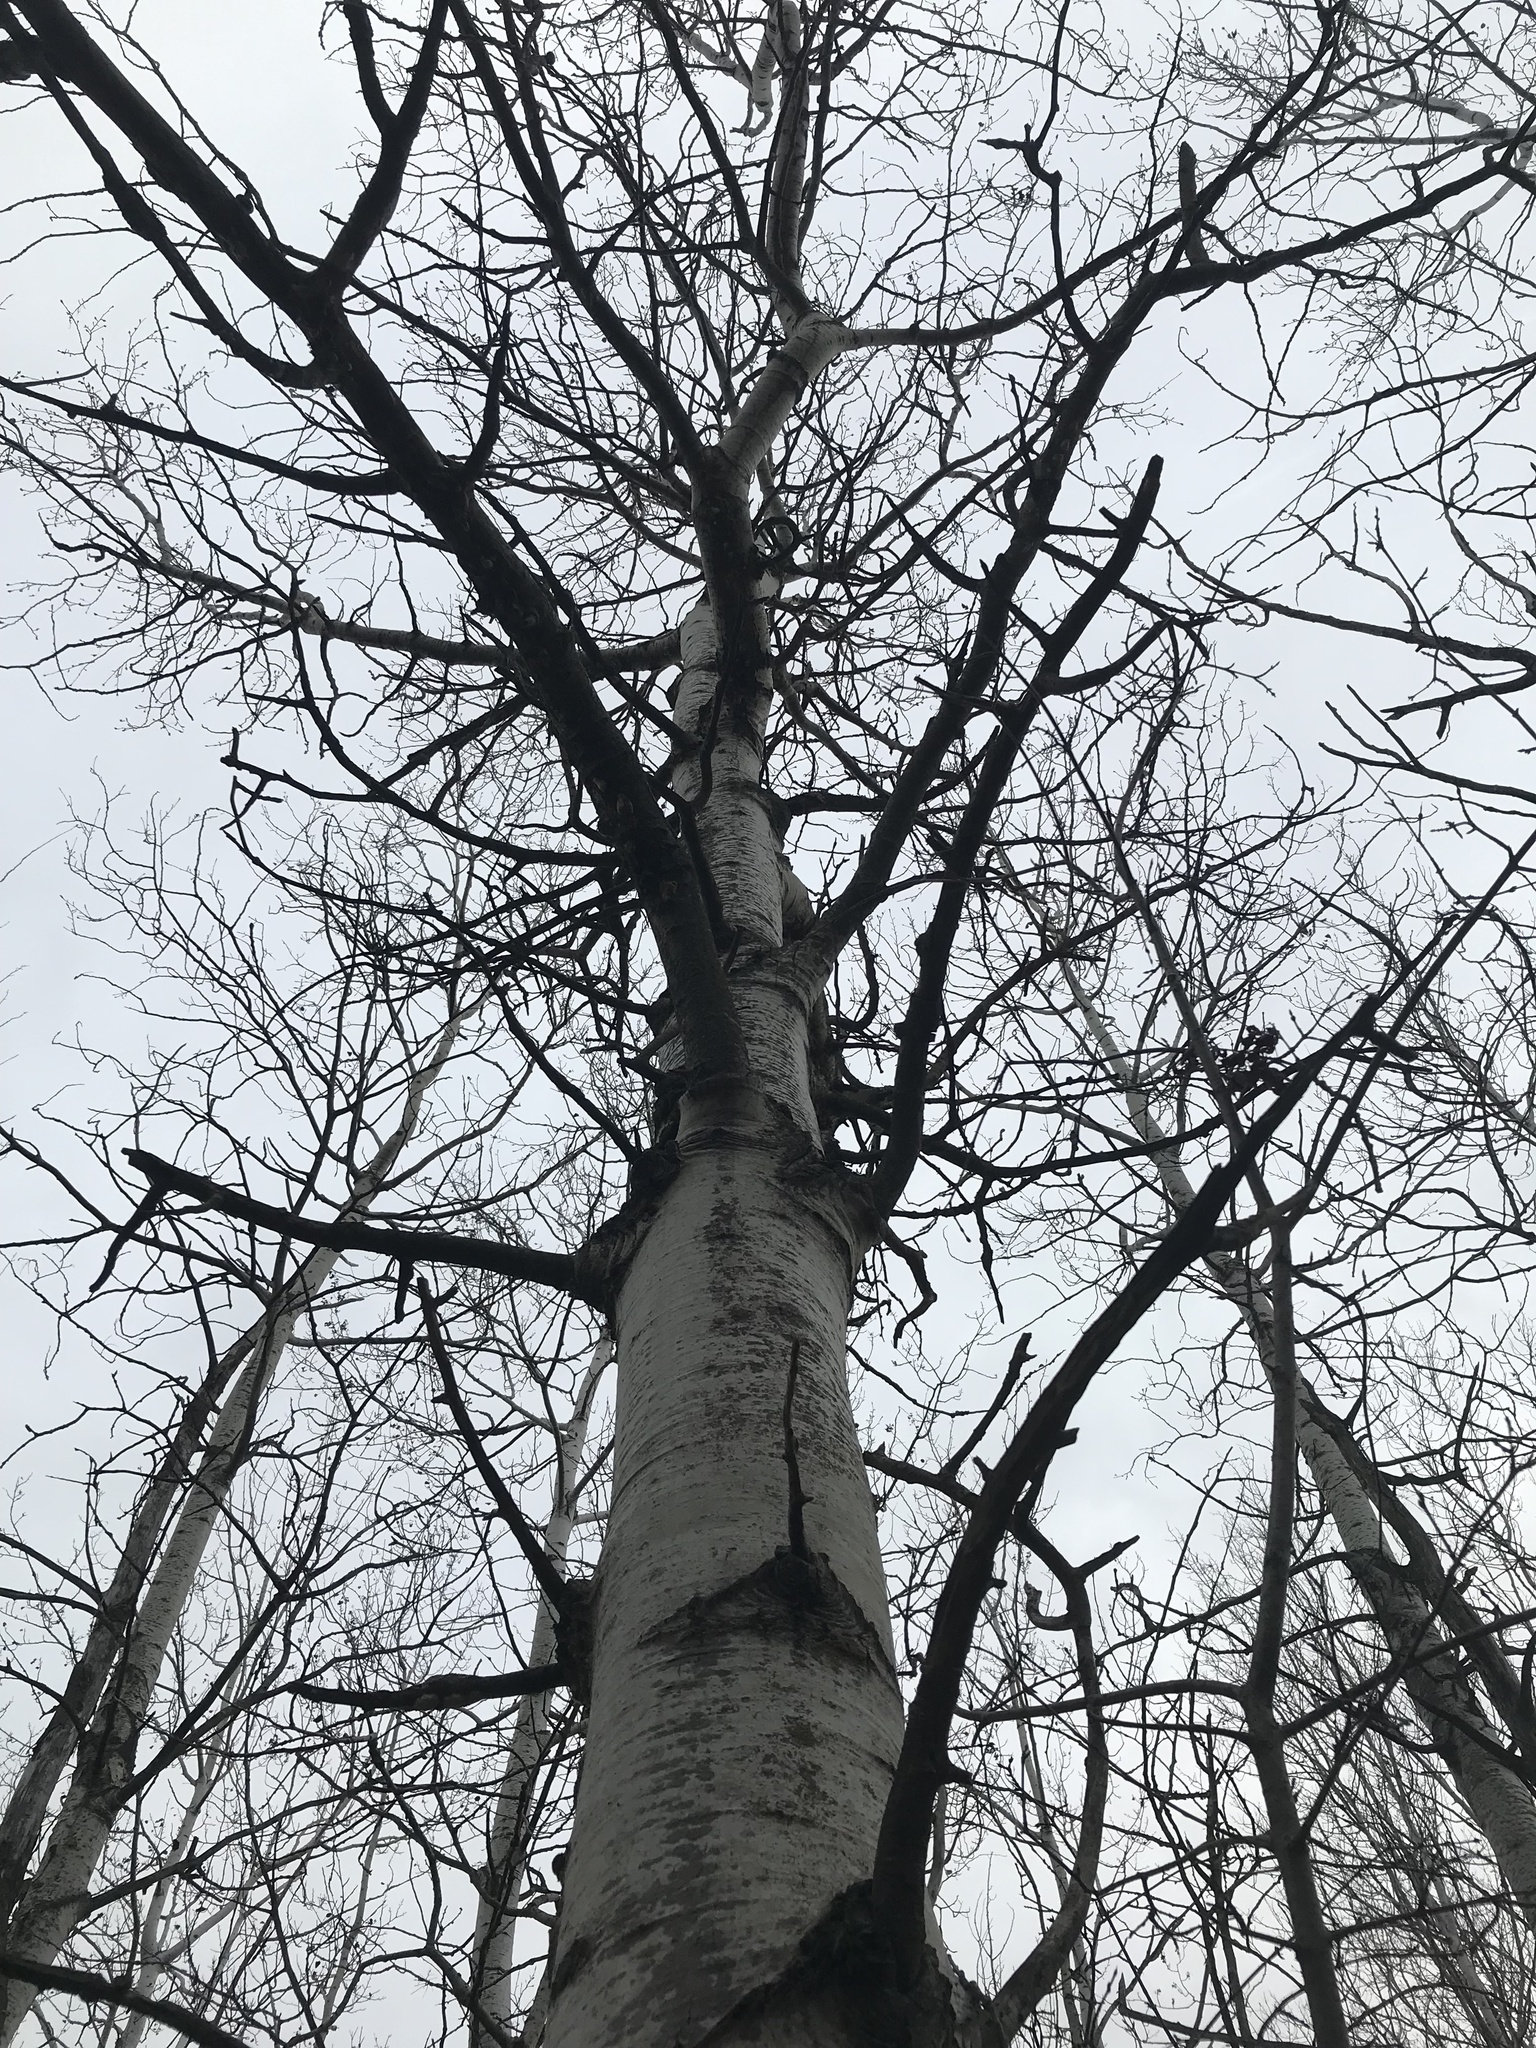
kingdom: Plantae
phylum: Tracheophyta
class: Magnoliopsida
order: Malpighiales
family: Salicaceae
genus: Populus
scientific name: Populus tremuloides
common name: Quaking aspen
